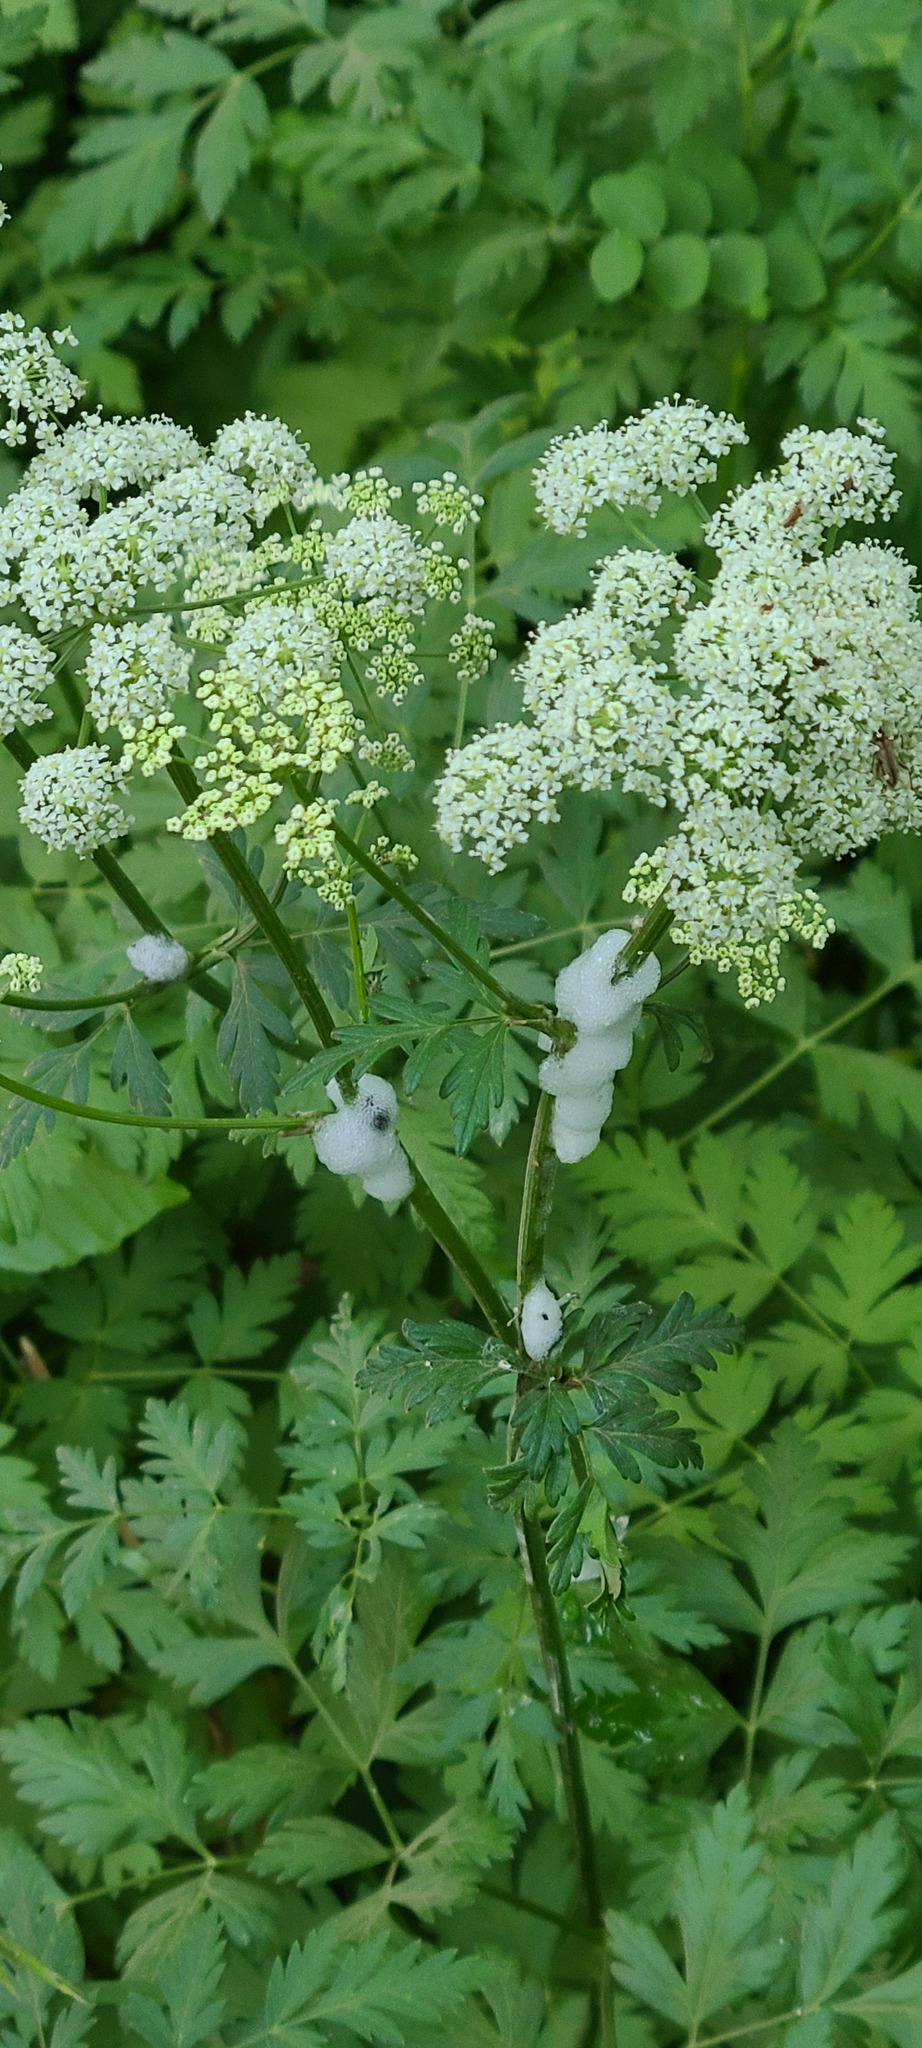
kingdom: Plantae
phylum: Tracheophyta
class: Magnoliopsida
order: Apiales
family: Apiaceae
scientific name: Apiaceae
